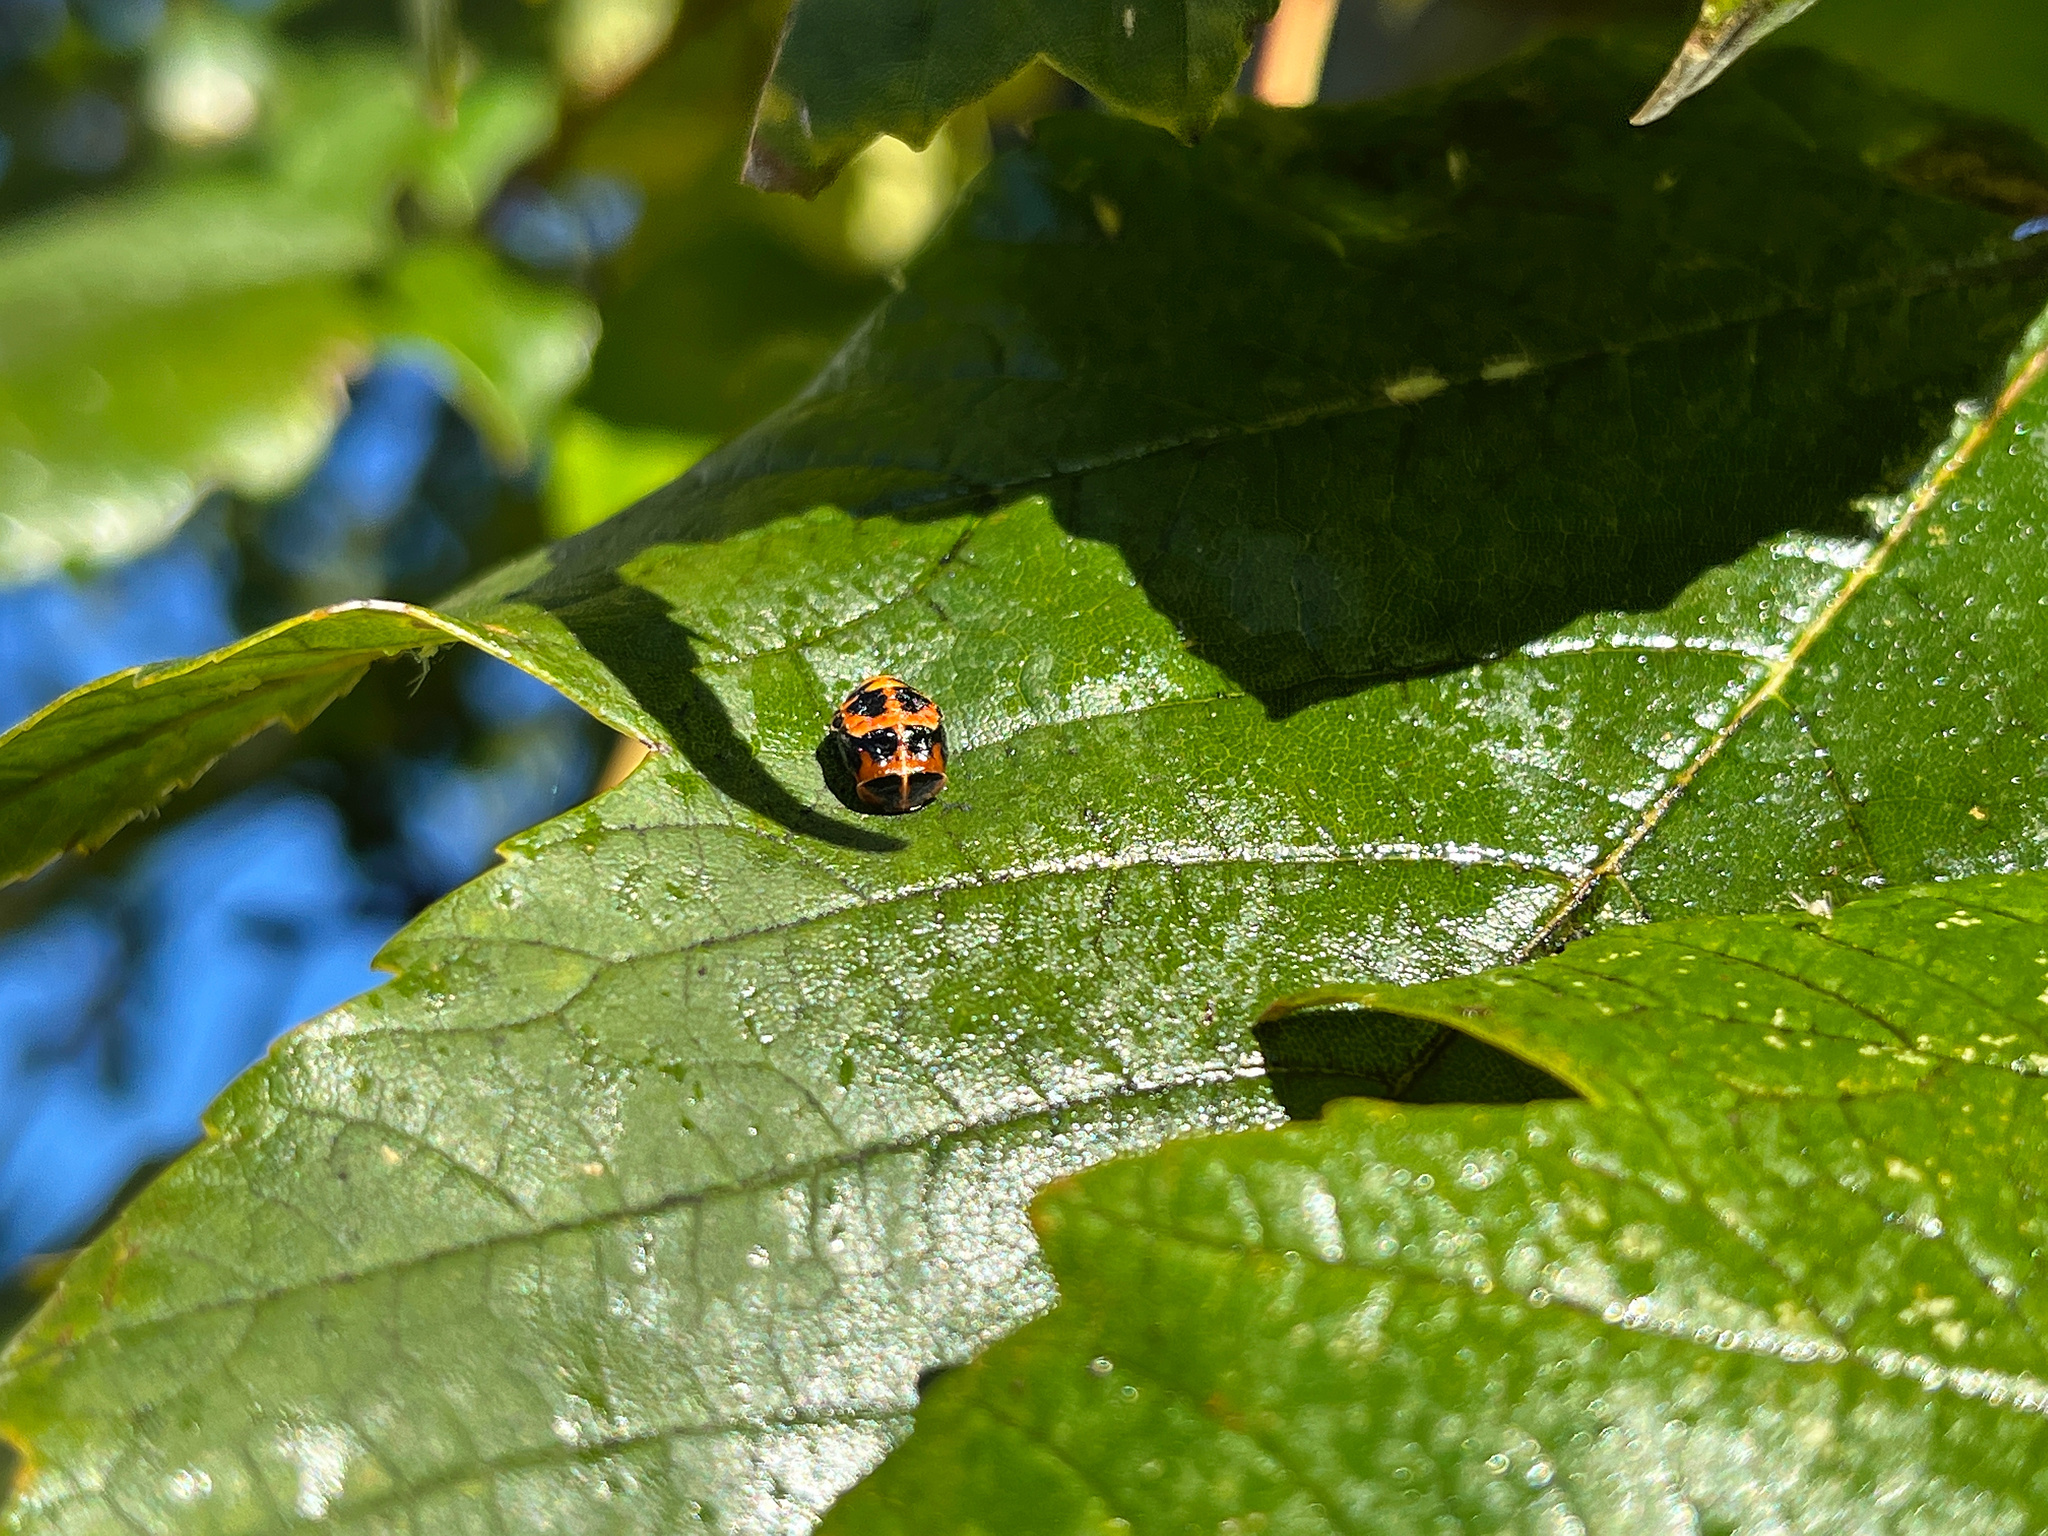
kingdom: Animalia
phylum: Arthropoda
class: Insecta
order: Coleoptera
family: Coccinellidae
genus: Harmonia
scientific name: Harmonia axyridis
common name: Harlequin ladybird
